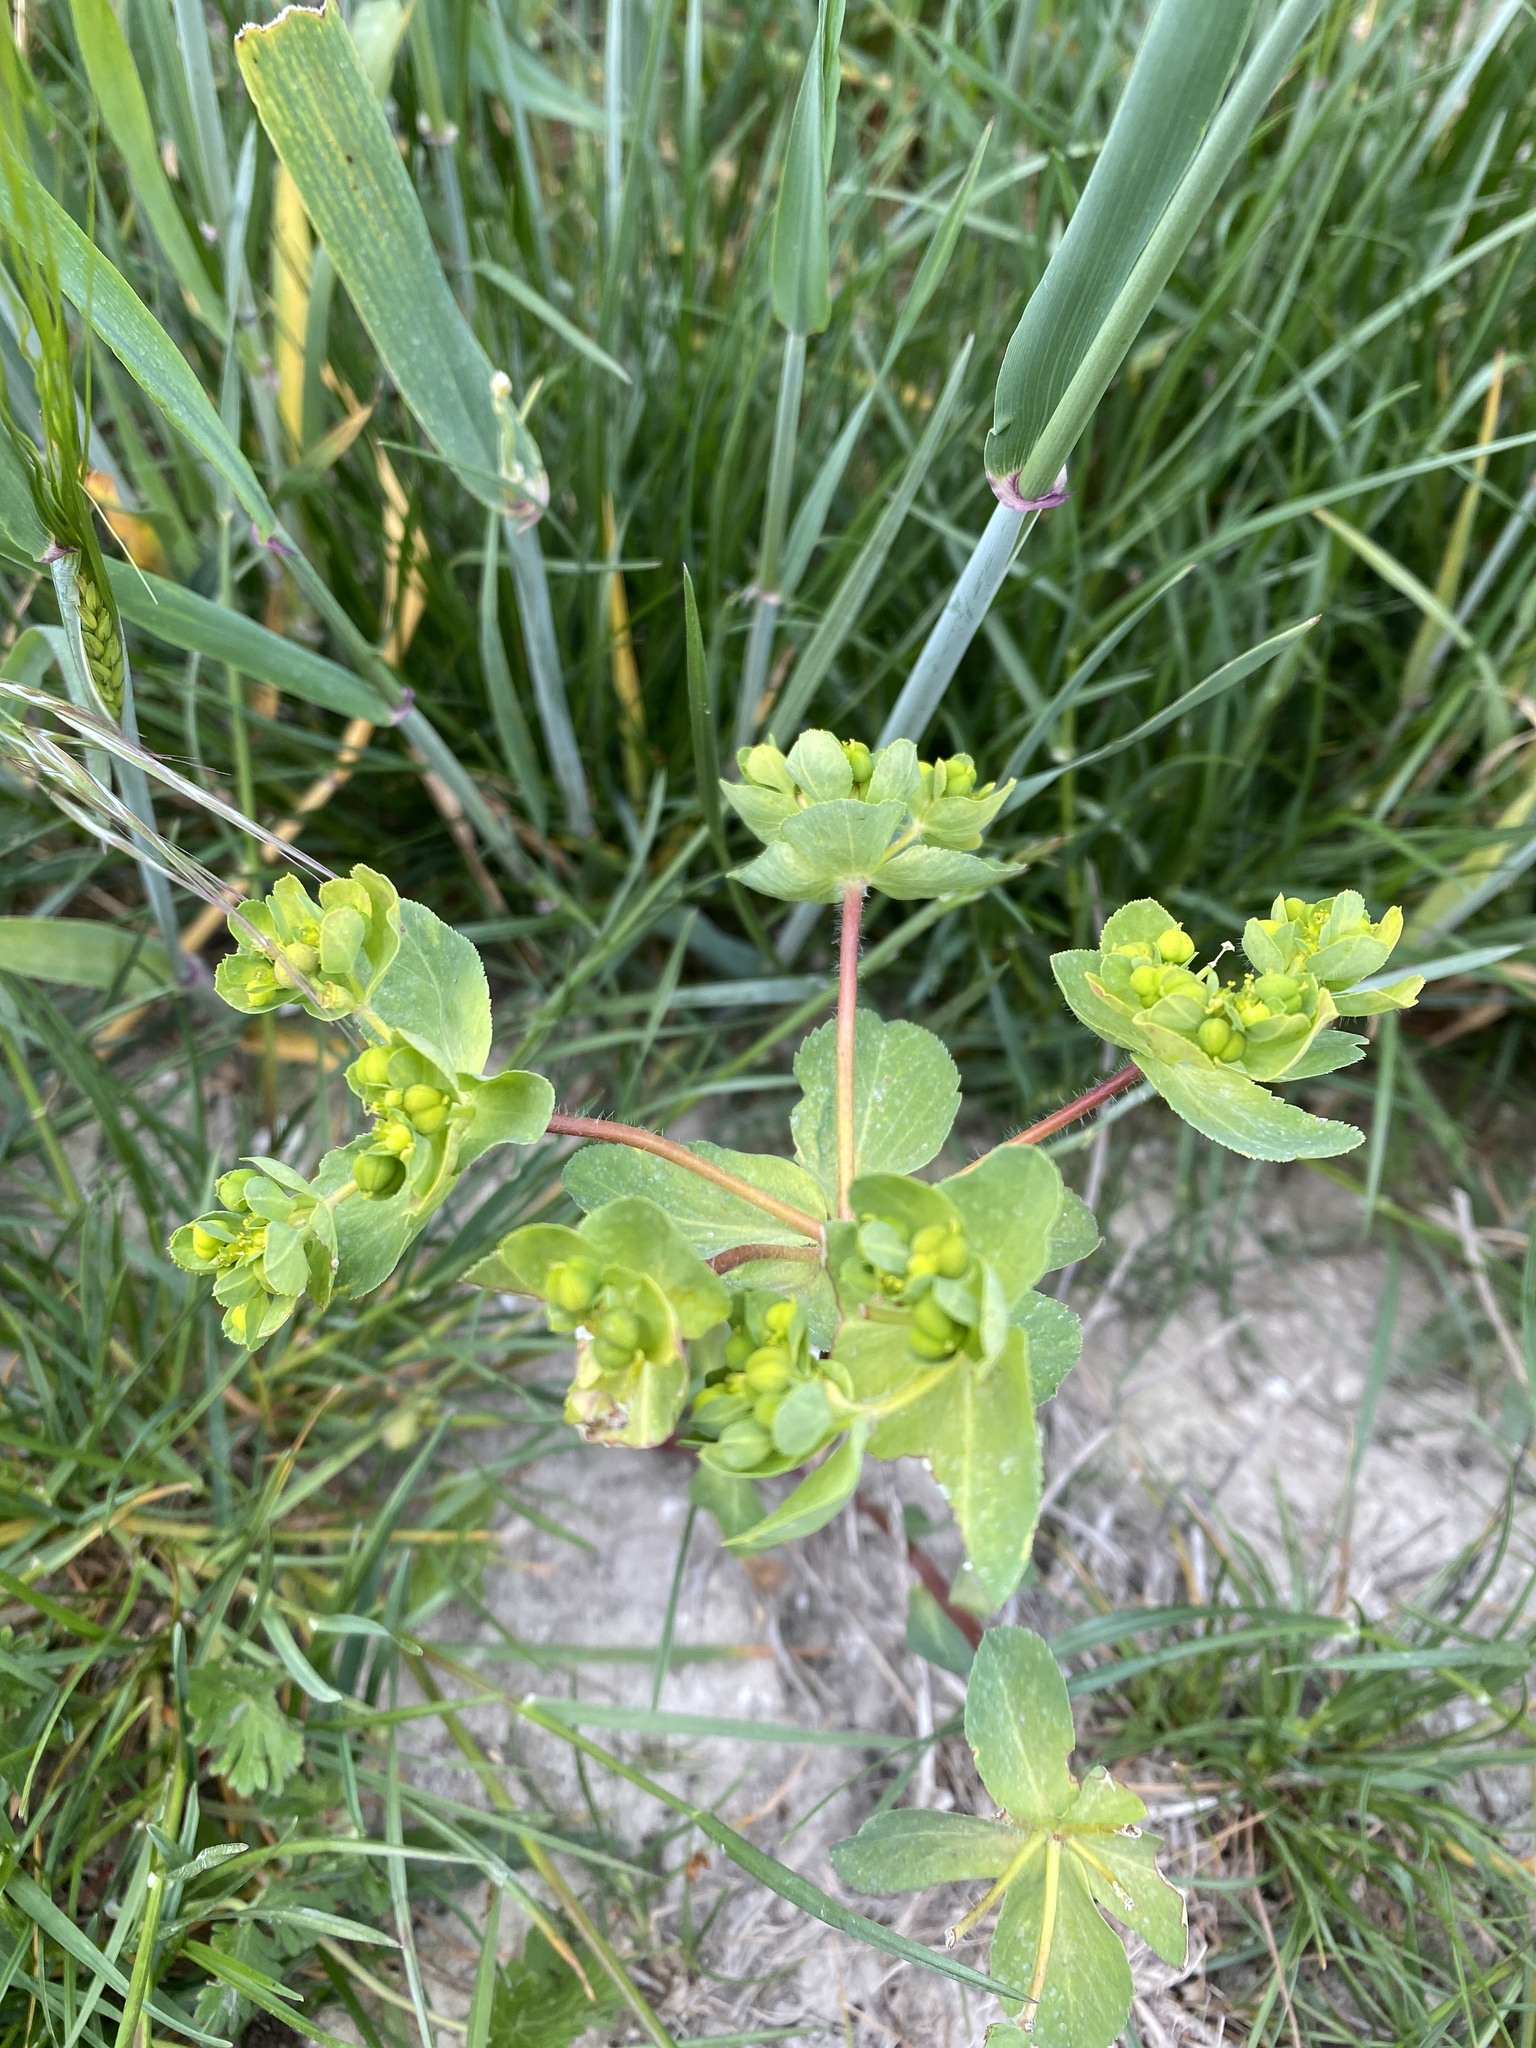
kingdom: Plantae
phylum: Tracheophyta
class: Magnoliopsida
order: Malpighiales
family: Euphorbiaceae
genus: Euphorbia
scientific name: Euphorbia helioscopia
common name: Sun spurge
